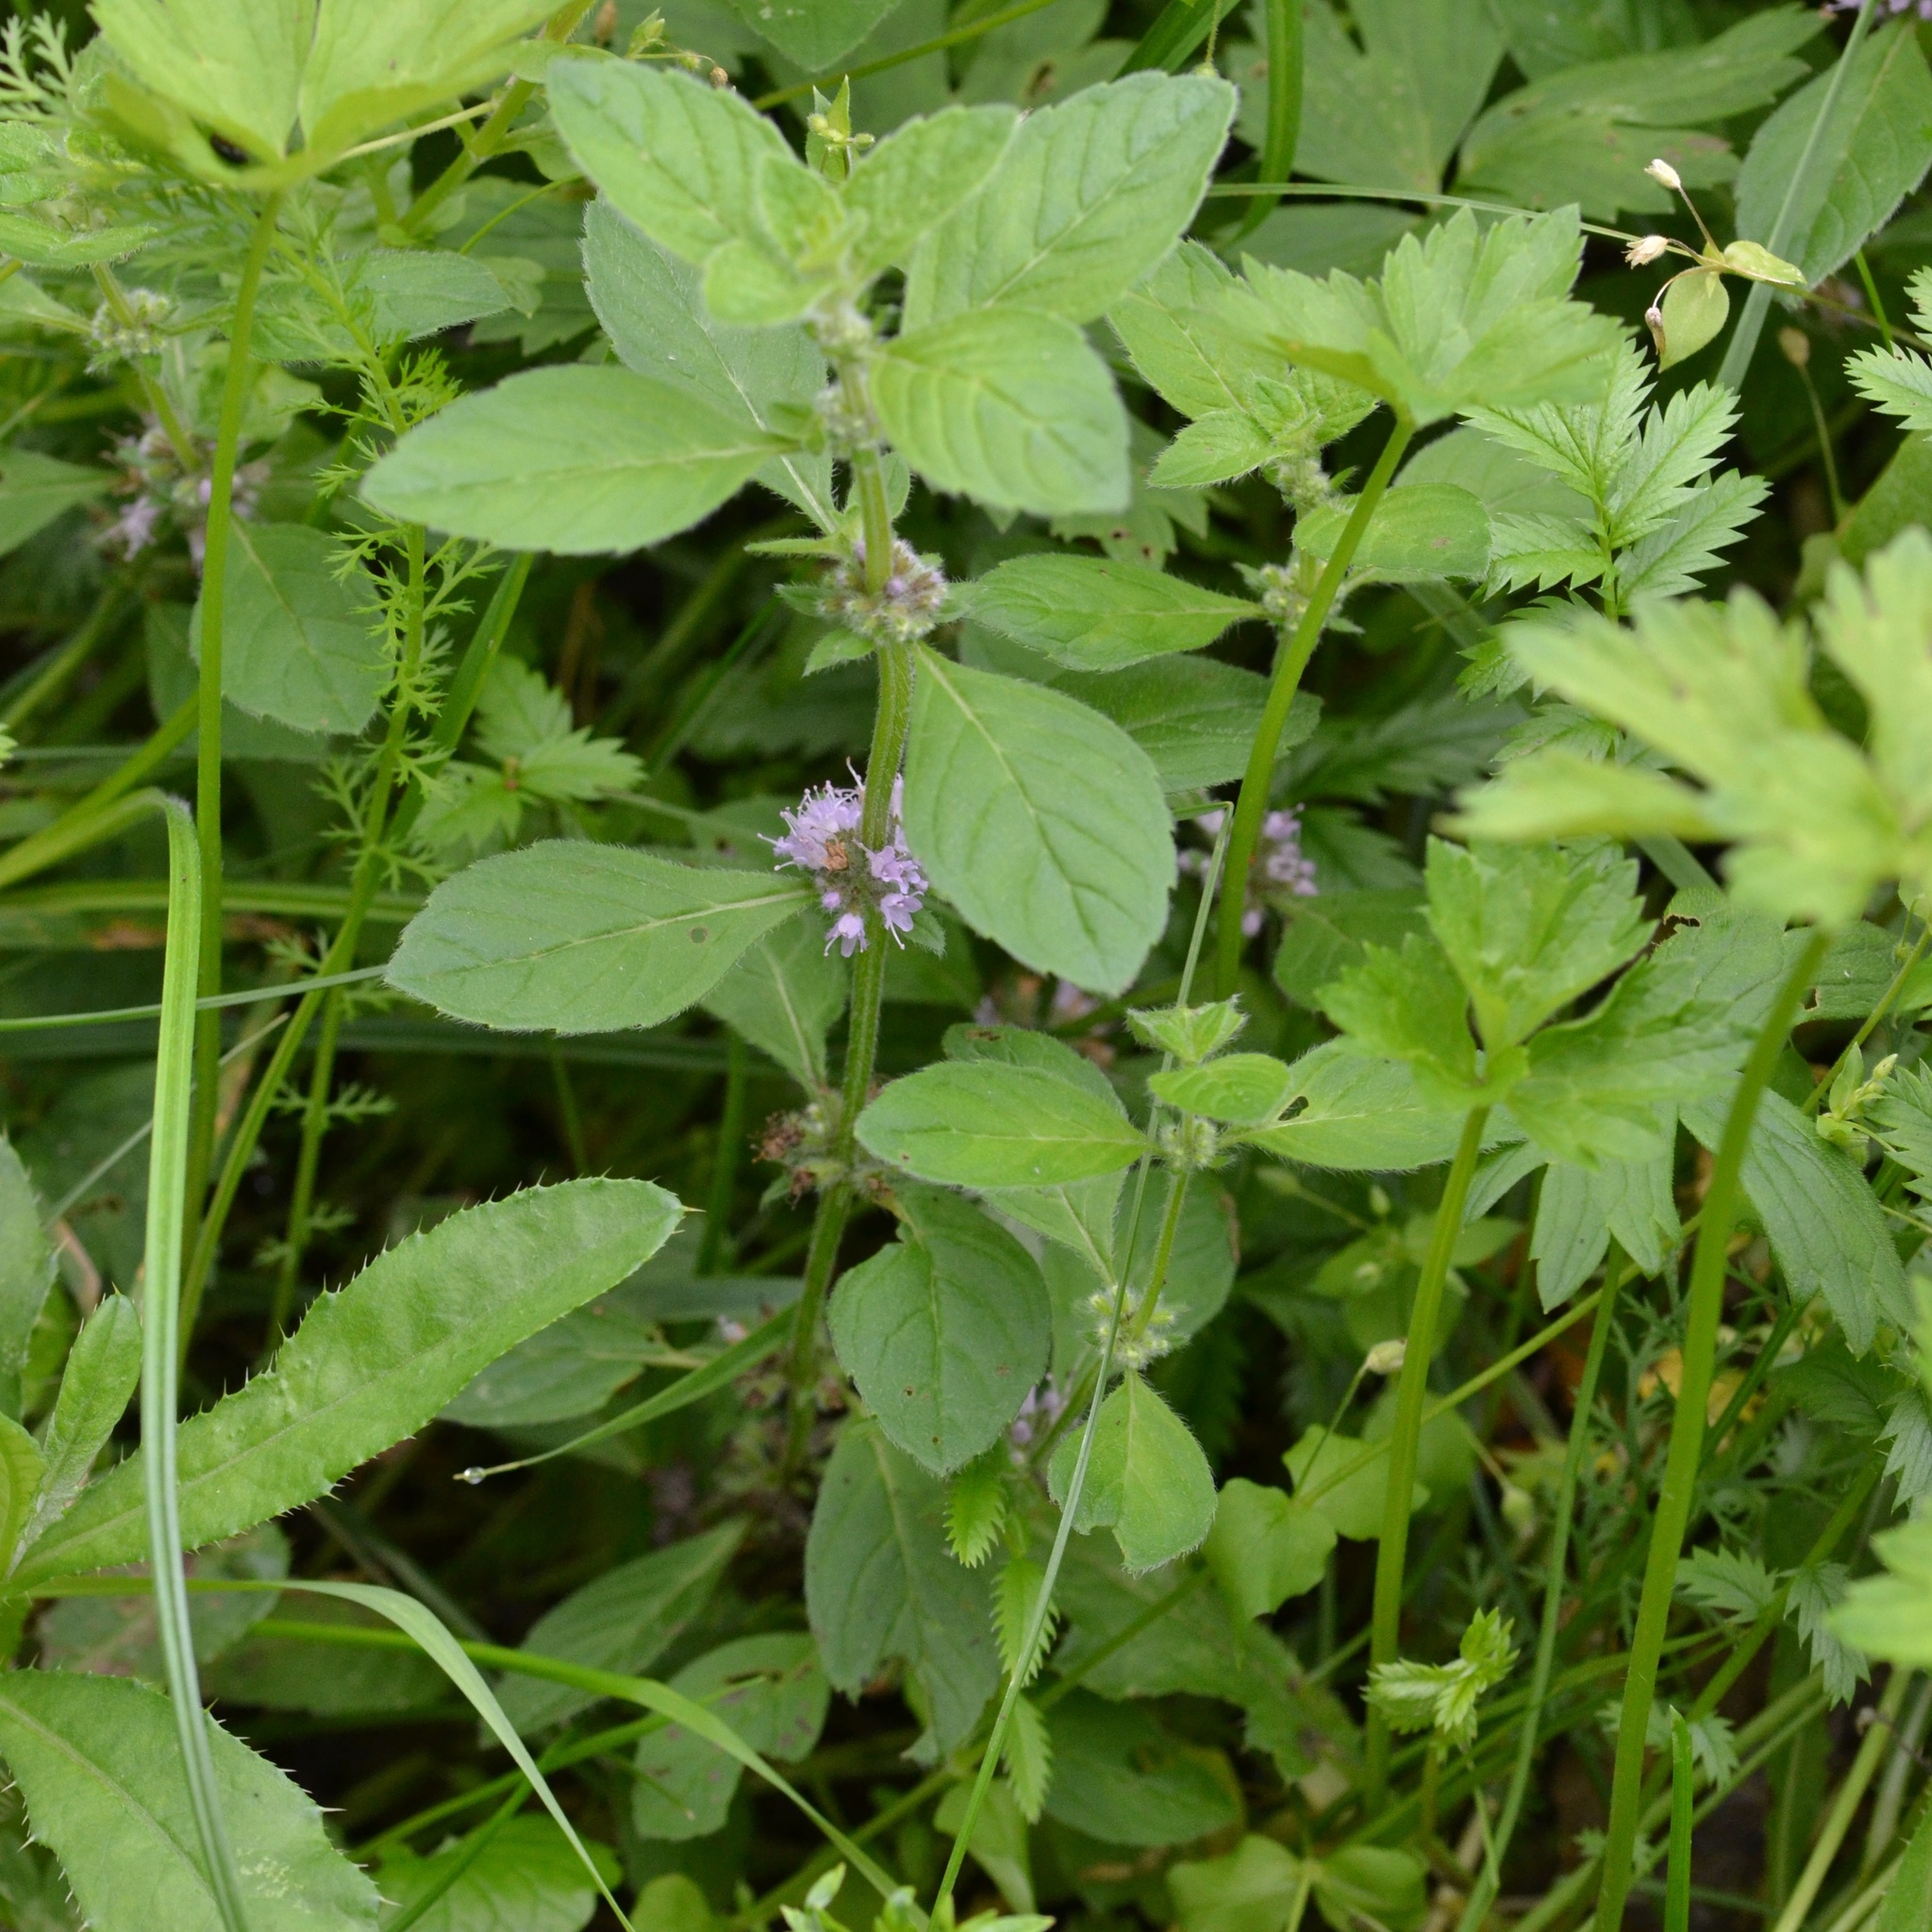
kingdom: Plantae
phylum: Tracheophyta
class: Magnoliopsida
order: Lamiales
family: Lamiaceae
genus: Mentha
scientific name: Mentha arvensis
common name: Corn mint
